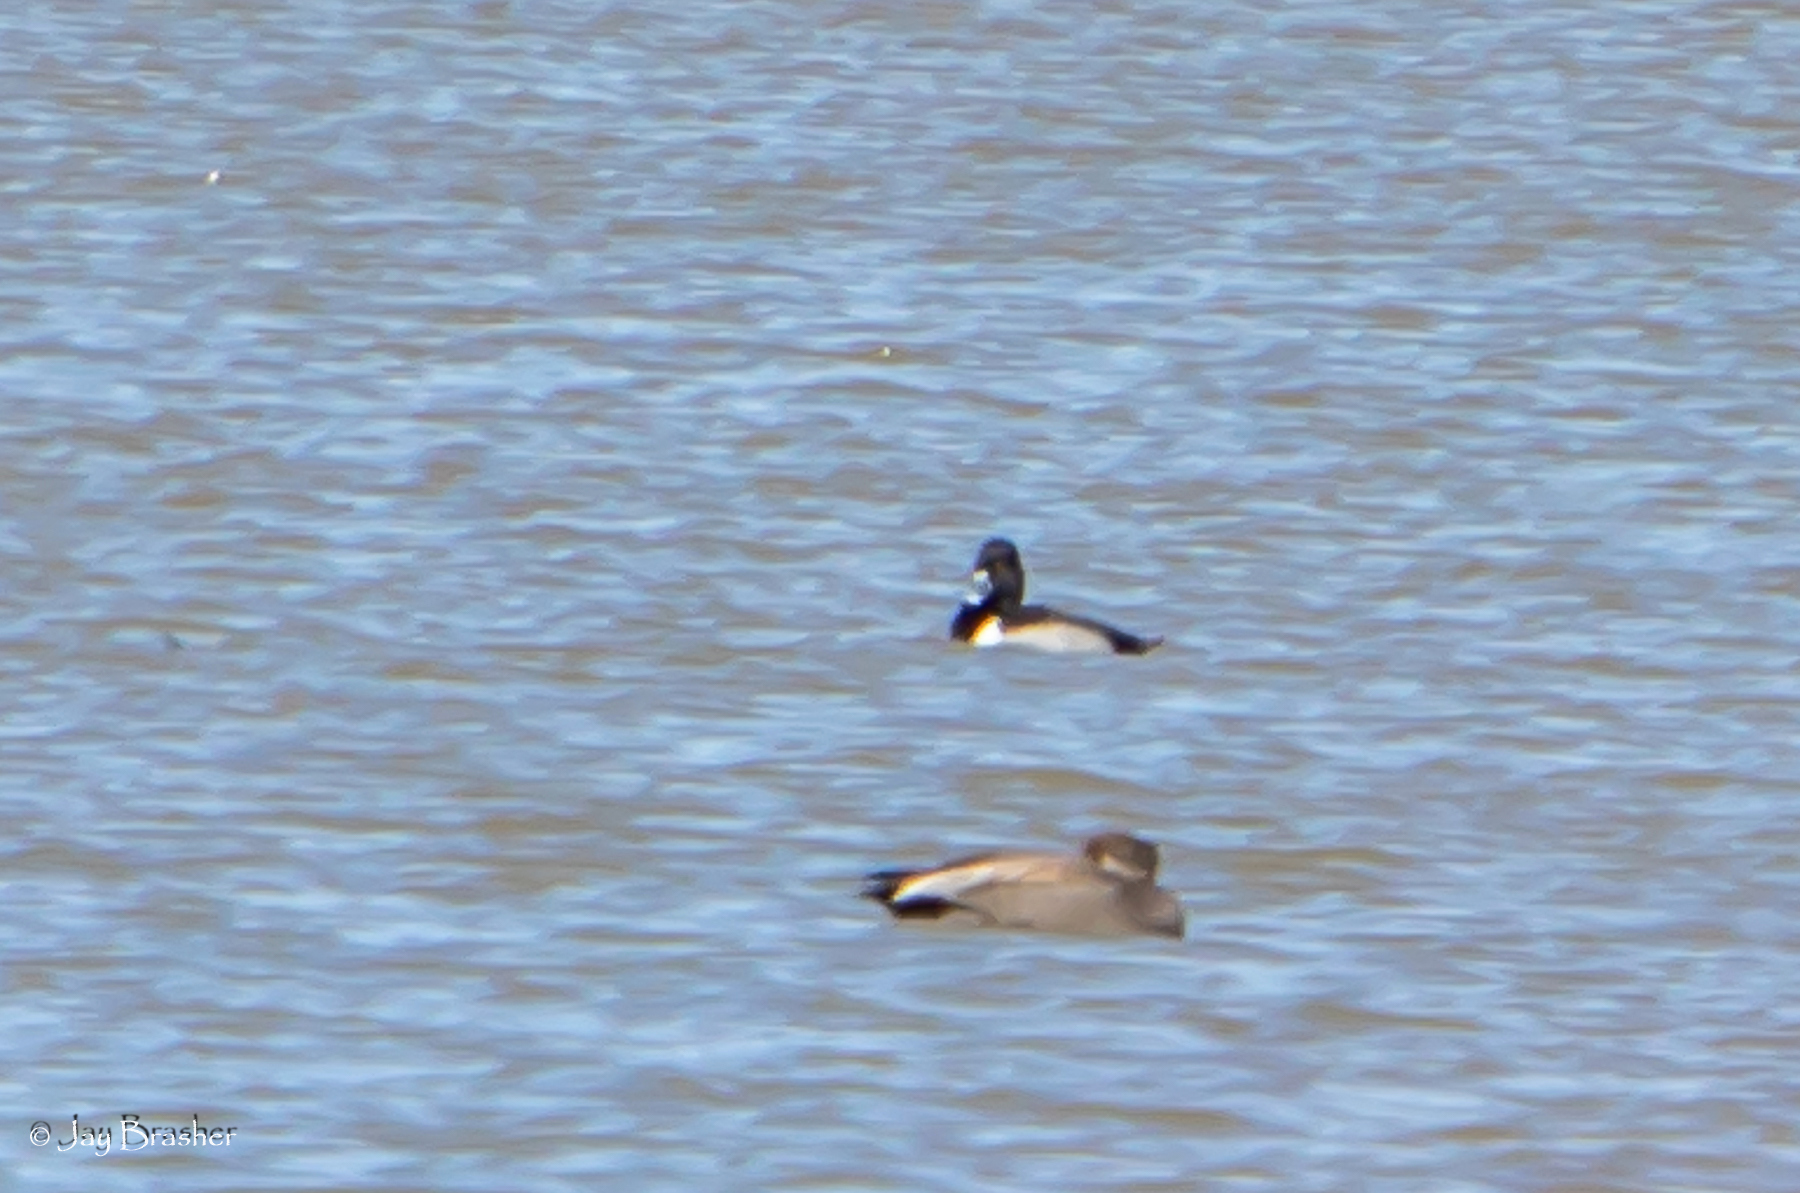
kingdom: Animalia
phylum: Chordata
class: Aves
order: Anseriformes
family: Anatidae
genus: Aythya
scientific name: Aythya collaris
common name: Ring-necked duck
